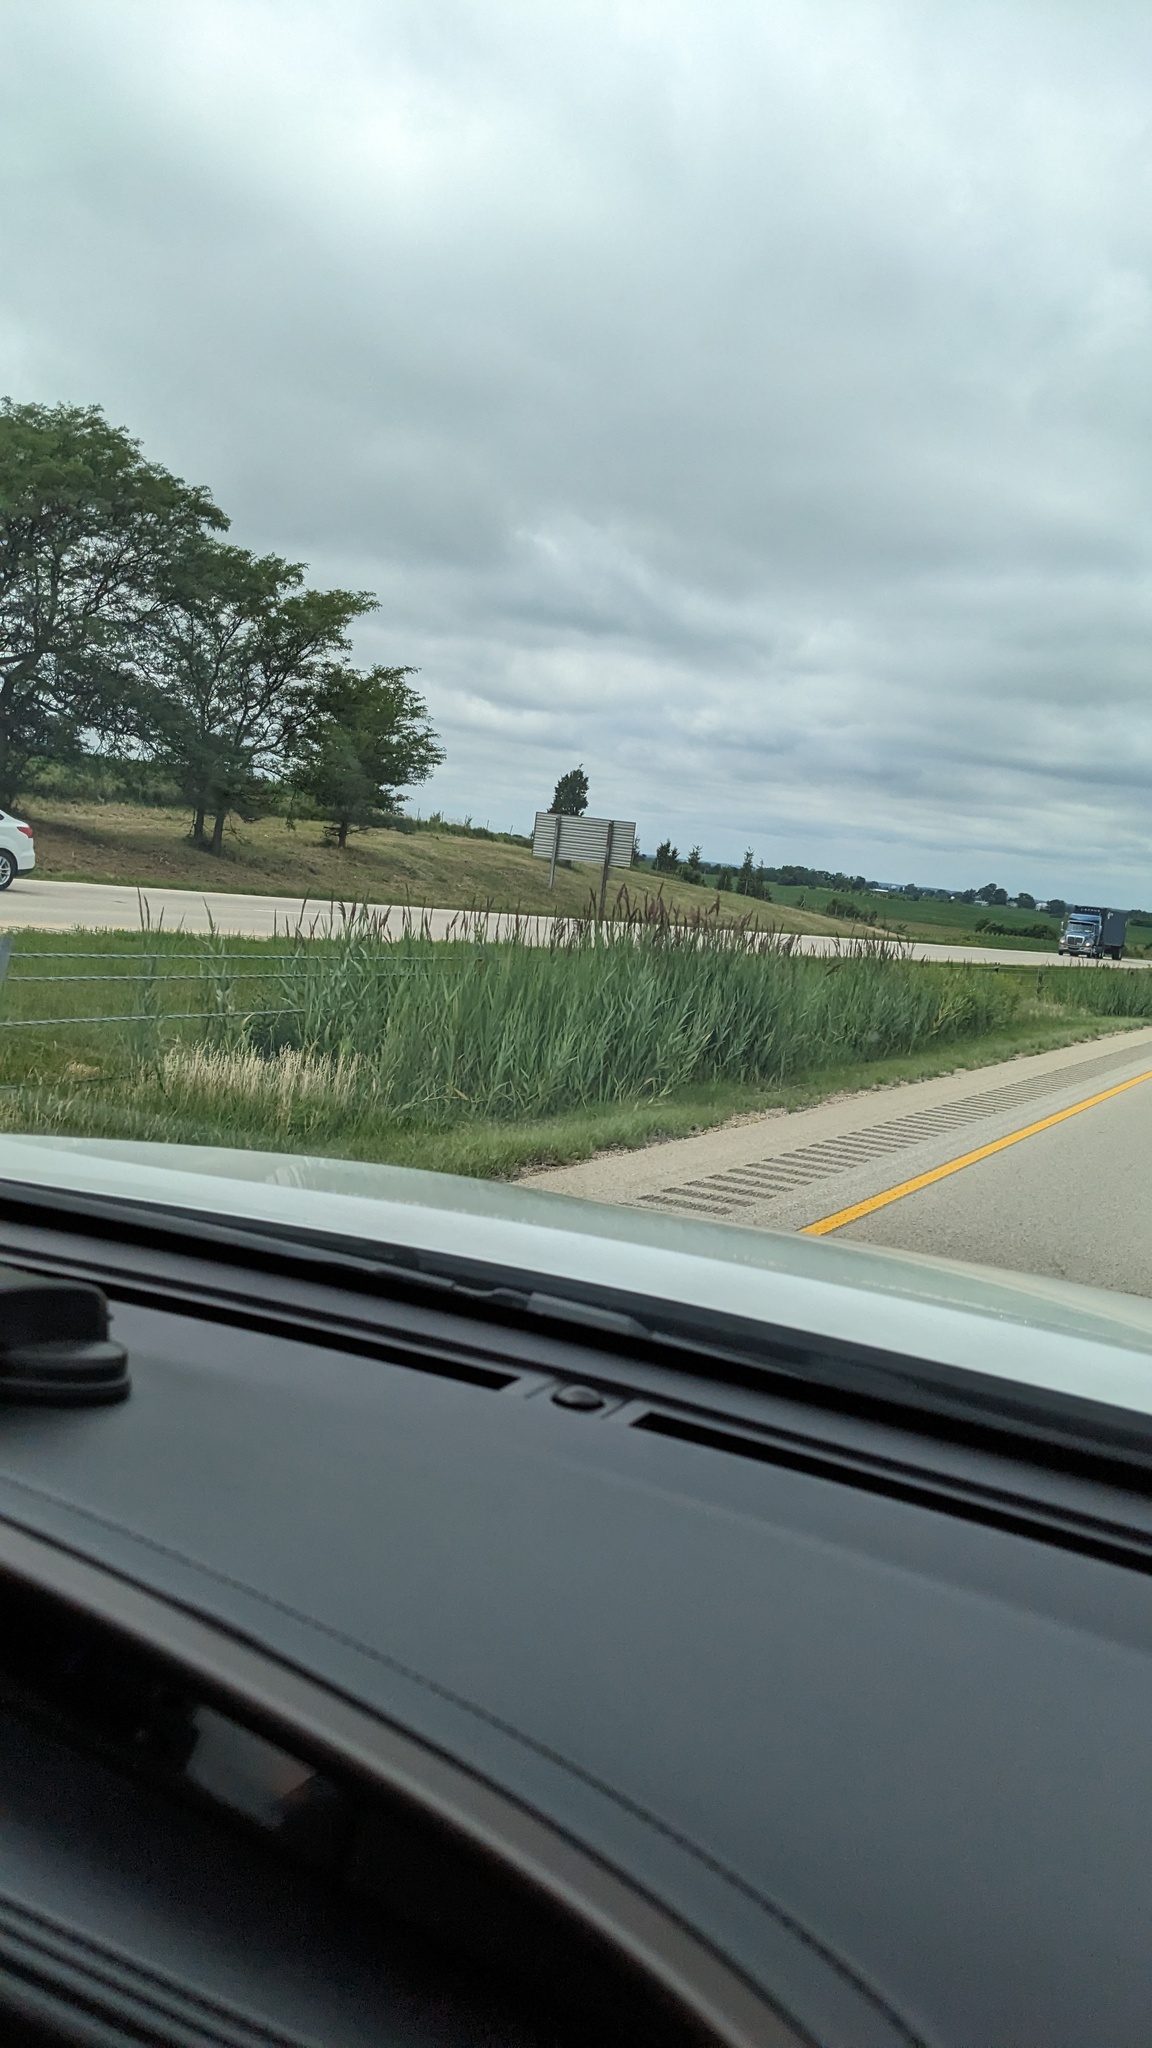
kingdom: Plantae
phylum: Tracheophyta
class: Liliopsida
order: Poales
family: Poaceae
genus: Phragmites
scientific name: Phragmites australis
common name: Common reed
